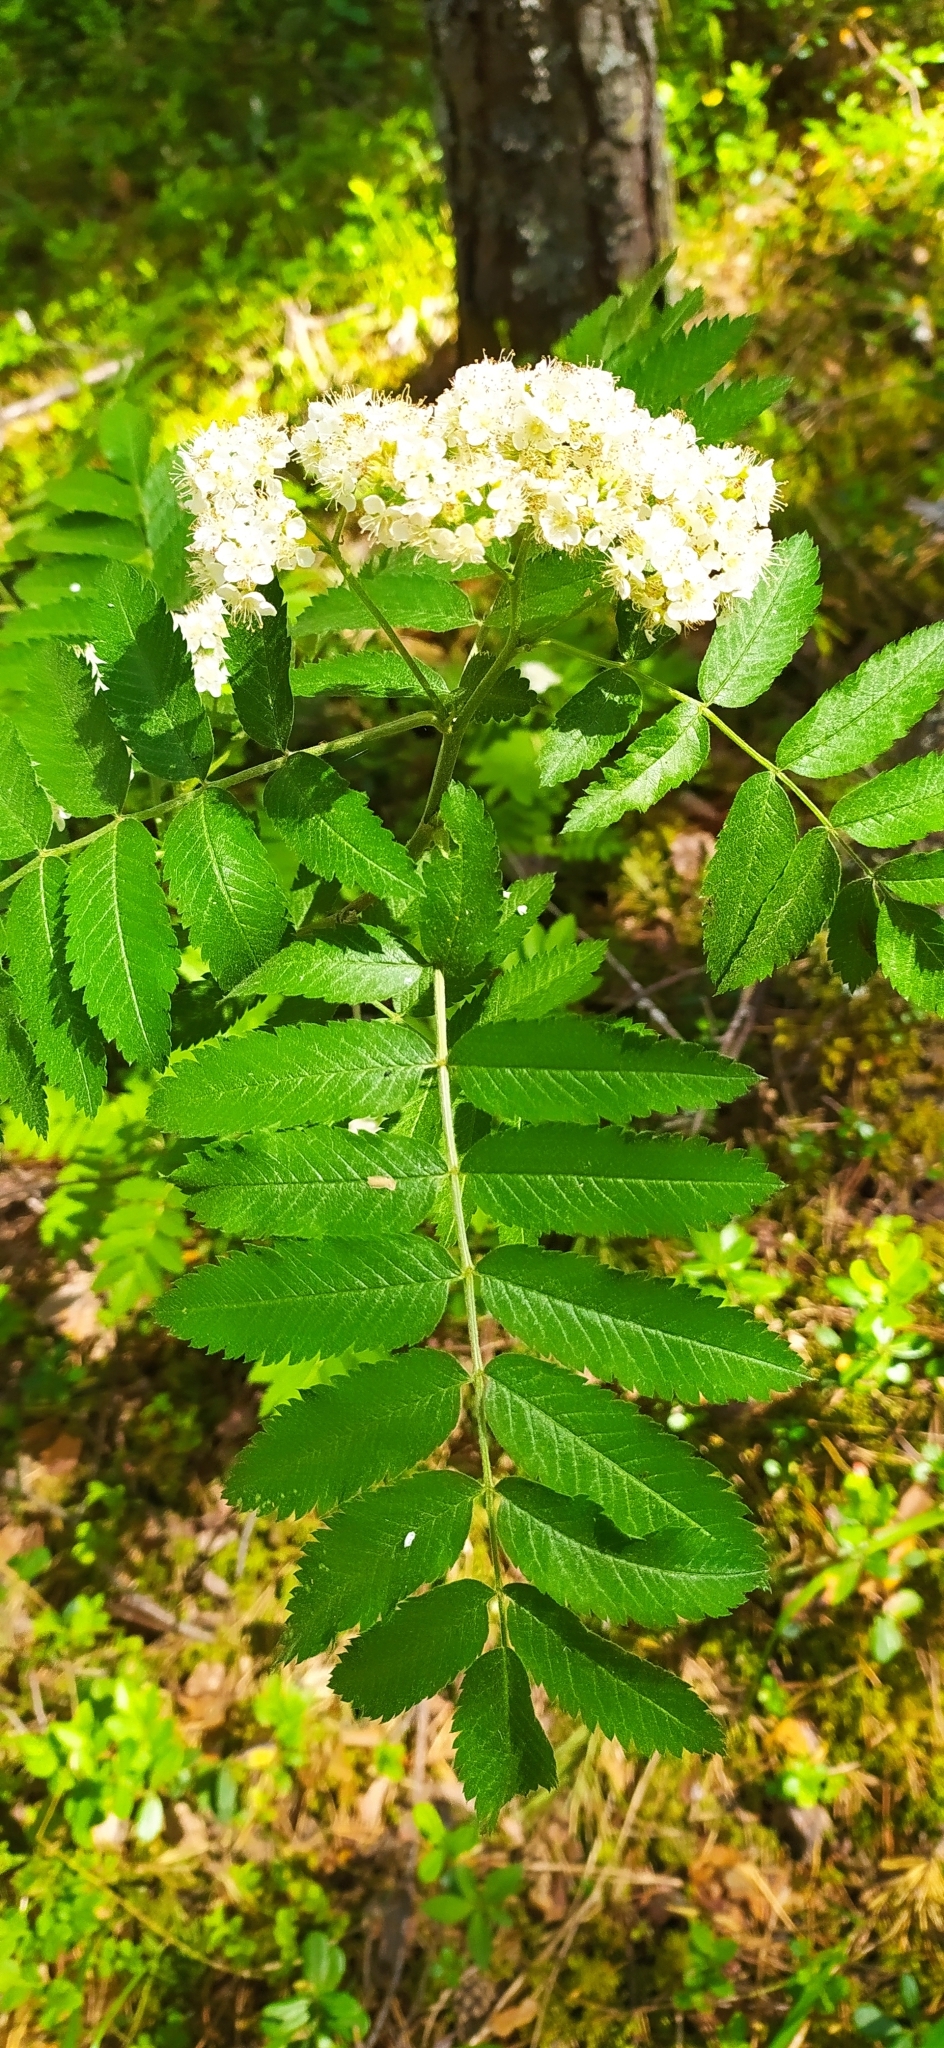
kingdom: Plantae
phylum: Tracheophyta
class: Magnoliopsida
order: Rosales
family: Rosaceae
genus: Sorbus
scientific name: Sorbus aucuparia
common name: Rowan
